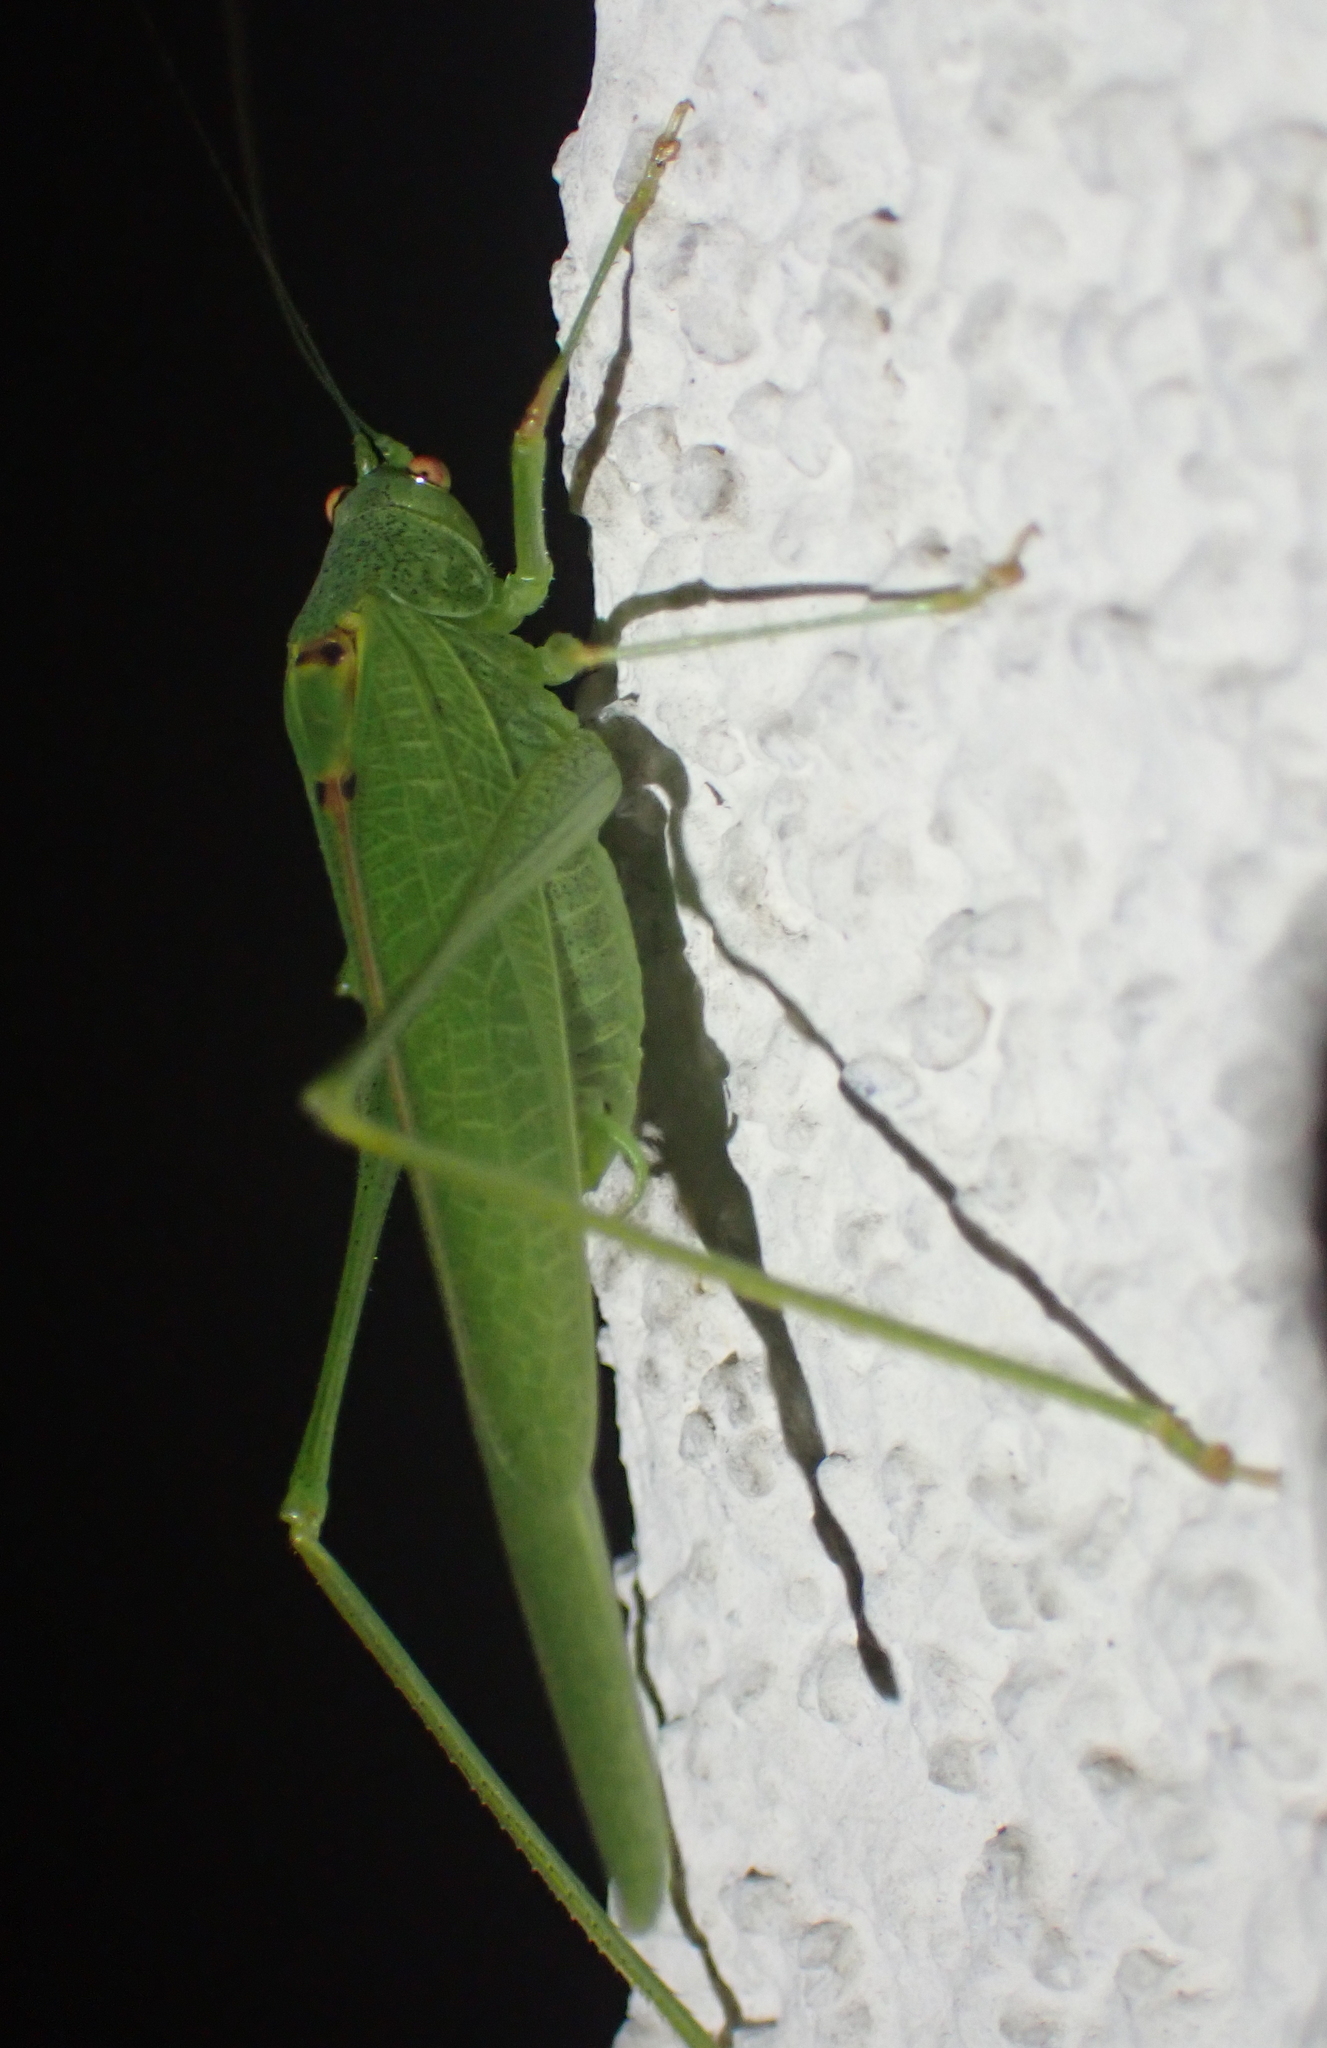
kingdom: Animalia
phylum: Arthropoda
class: Insecta
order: Orthoptera
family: Tettigoniidae
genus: Phaneroptera
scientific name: Phaneroptera nana
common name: Southern sickle bush-cricket
